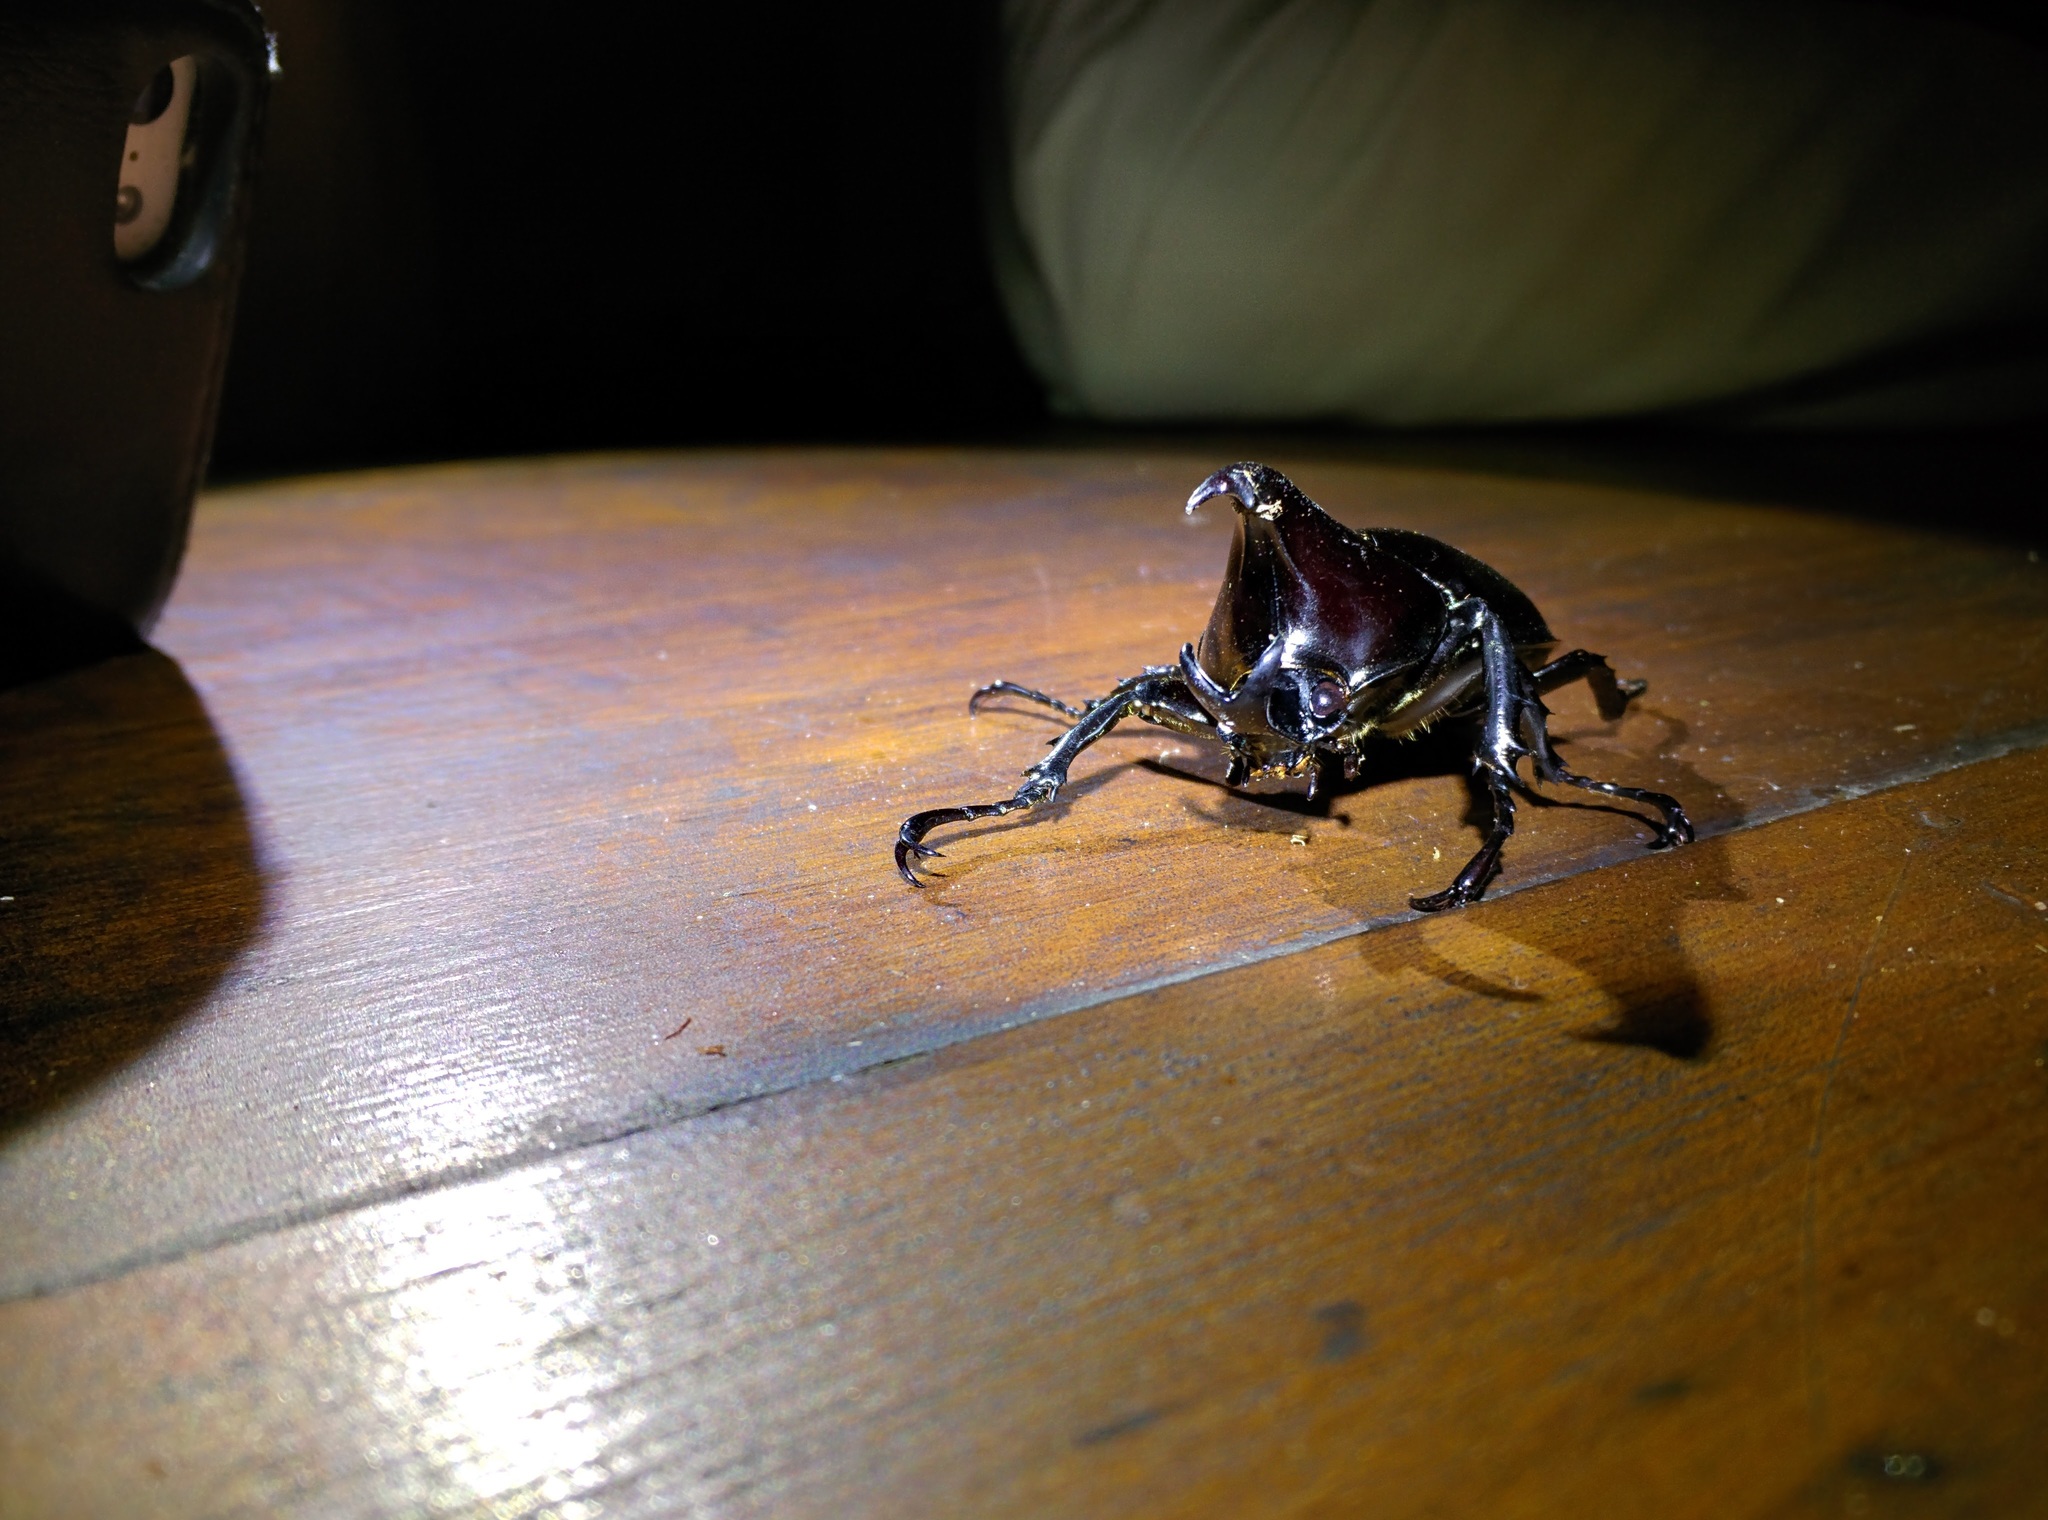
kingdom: Animalia
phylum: Arthropoda
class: Insecta
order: Coleoptera
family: Scarabaeidae
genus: Xylotrupes
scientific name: Xylotrupes australicus
